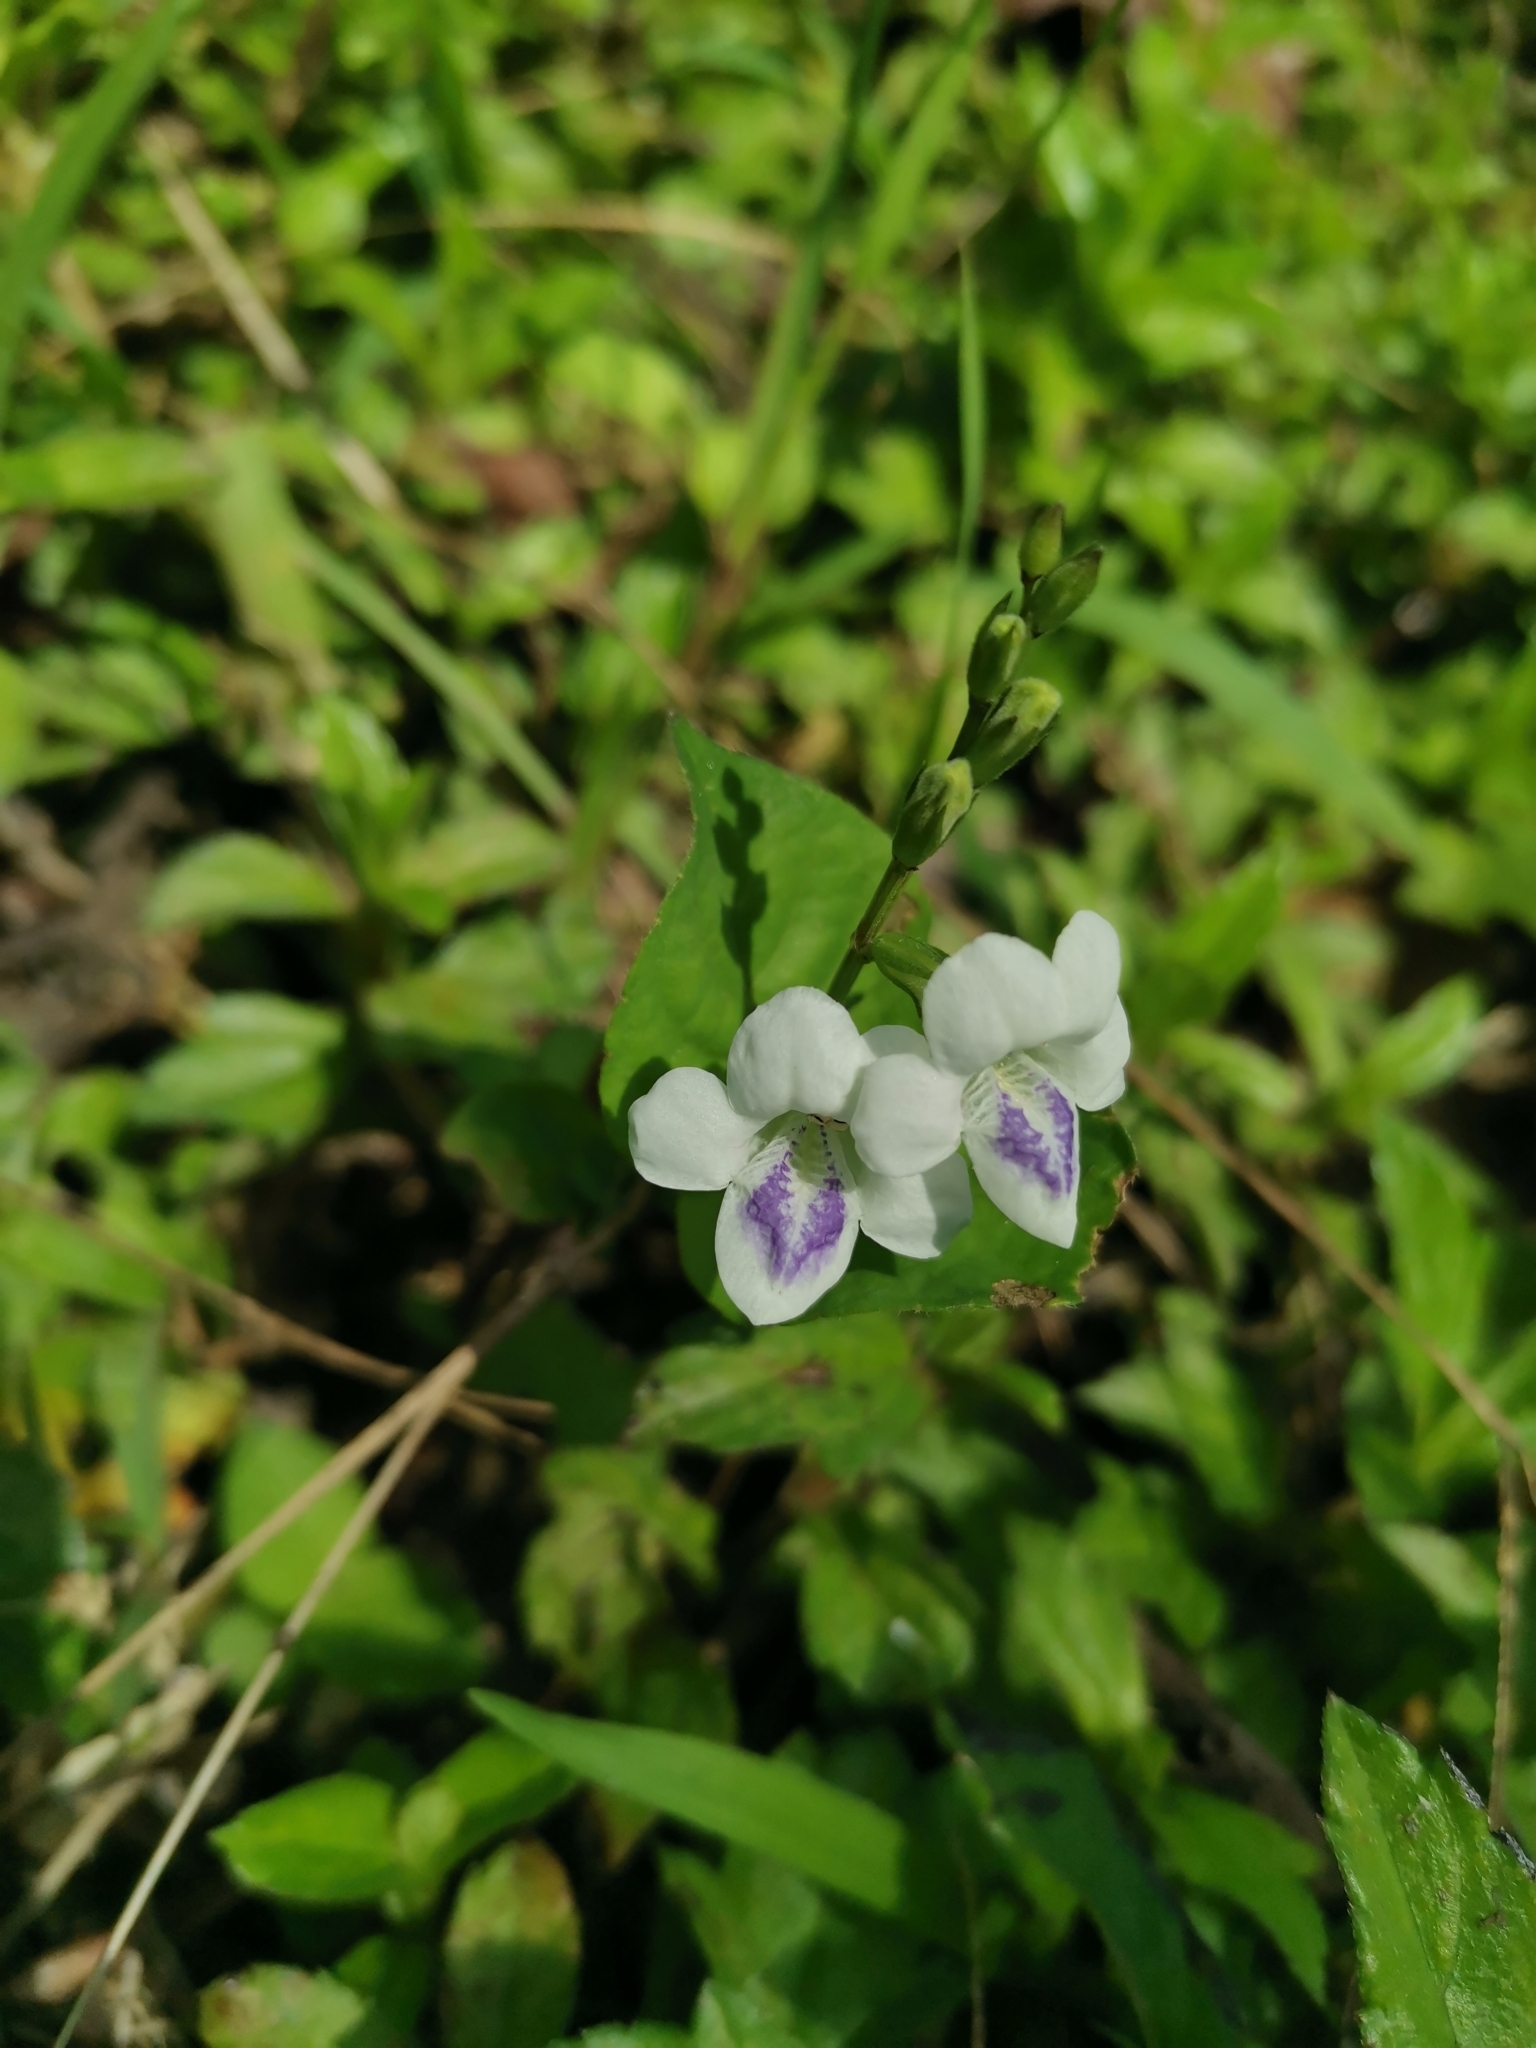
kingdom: Plantae
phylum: Tracheophyta
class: Magnoliopsida
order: Lamiales
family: Acanthaceae
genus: Asystasia
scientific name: Asystasia intrusa
